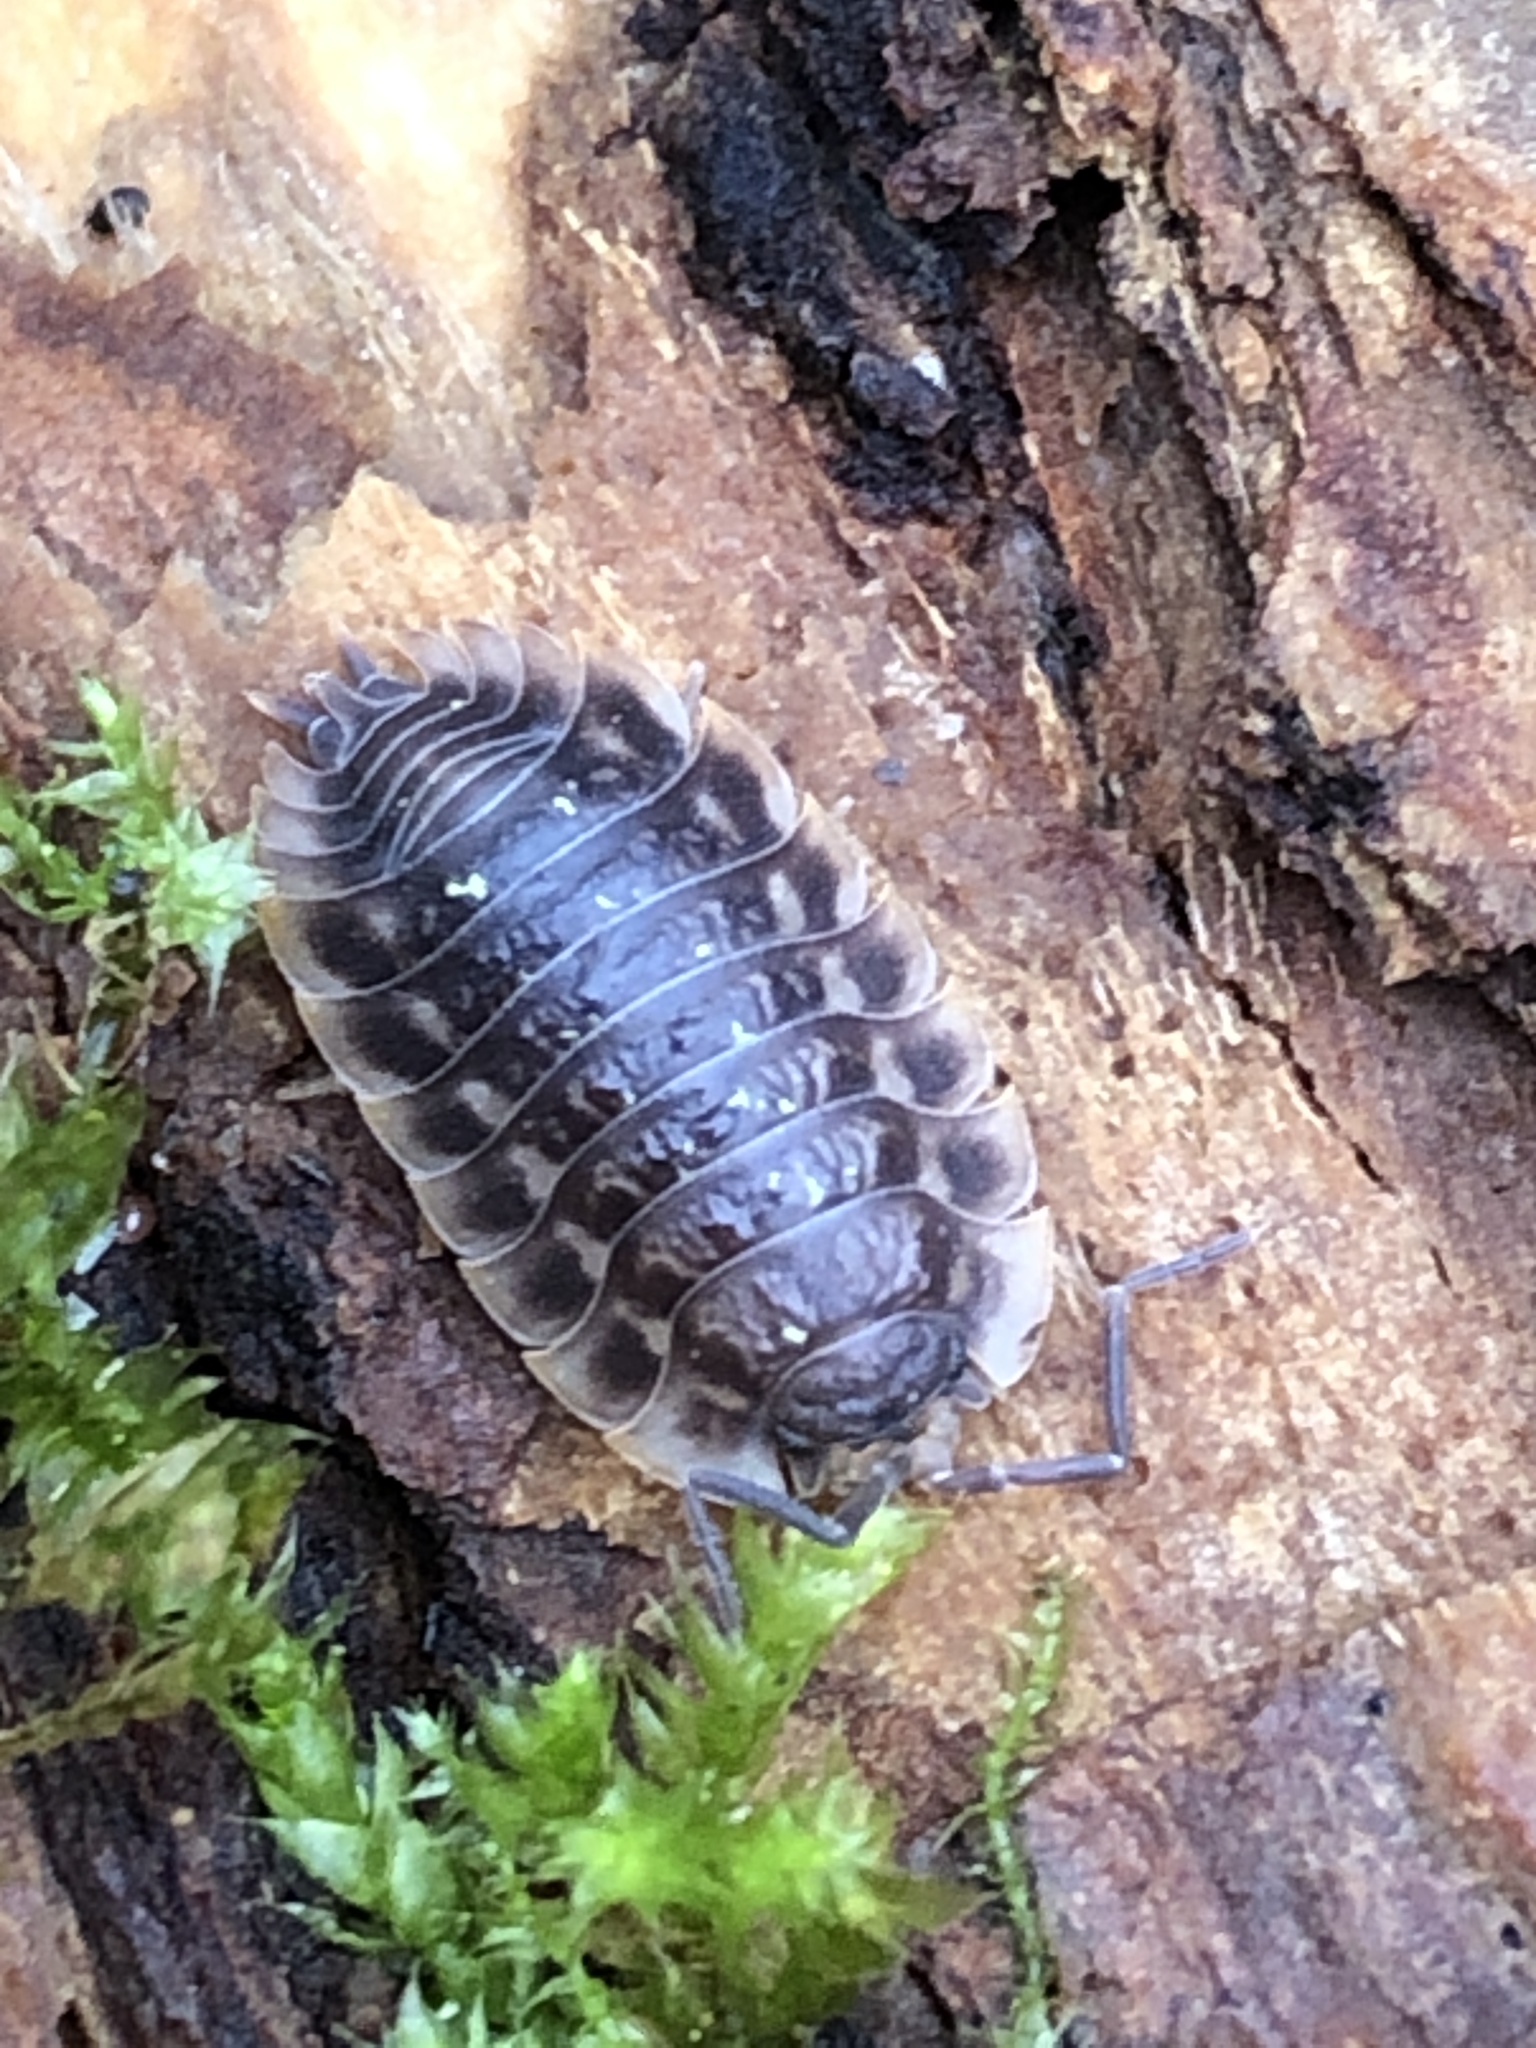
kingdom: Animalia
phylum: Arthropoda
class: Malacostraca
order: Isopoda
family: Oniscidae
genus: Oniscus
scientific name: Oniscus asellus
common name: Common shiny woodlouse
